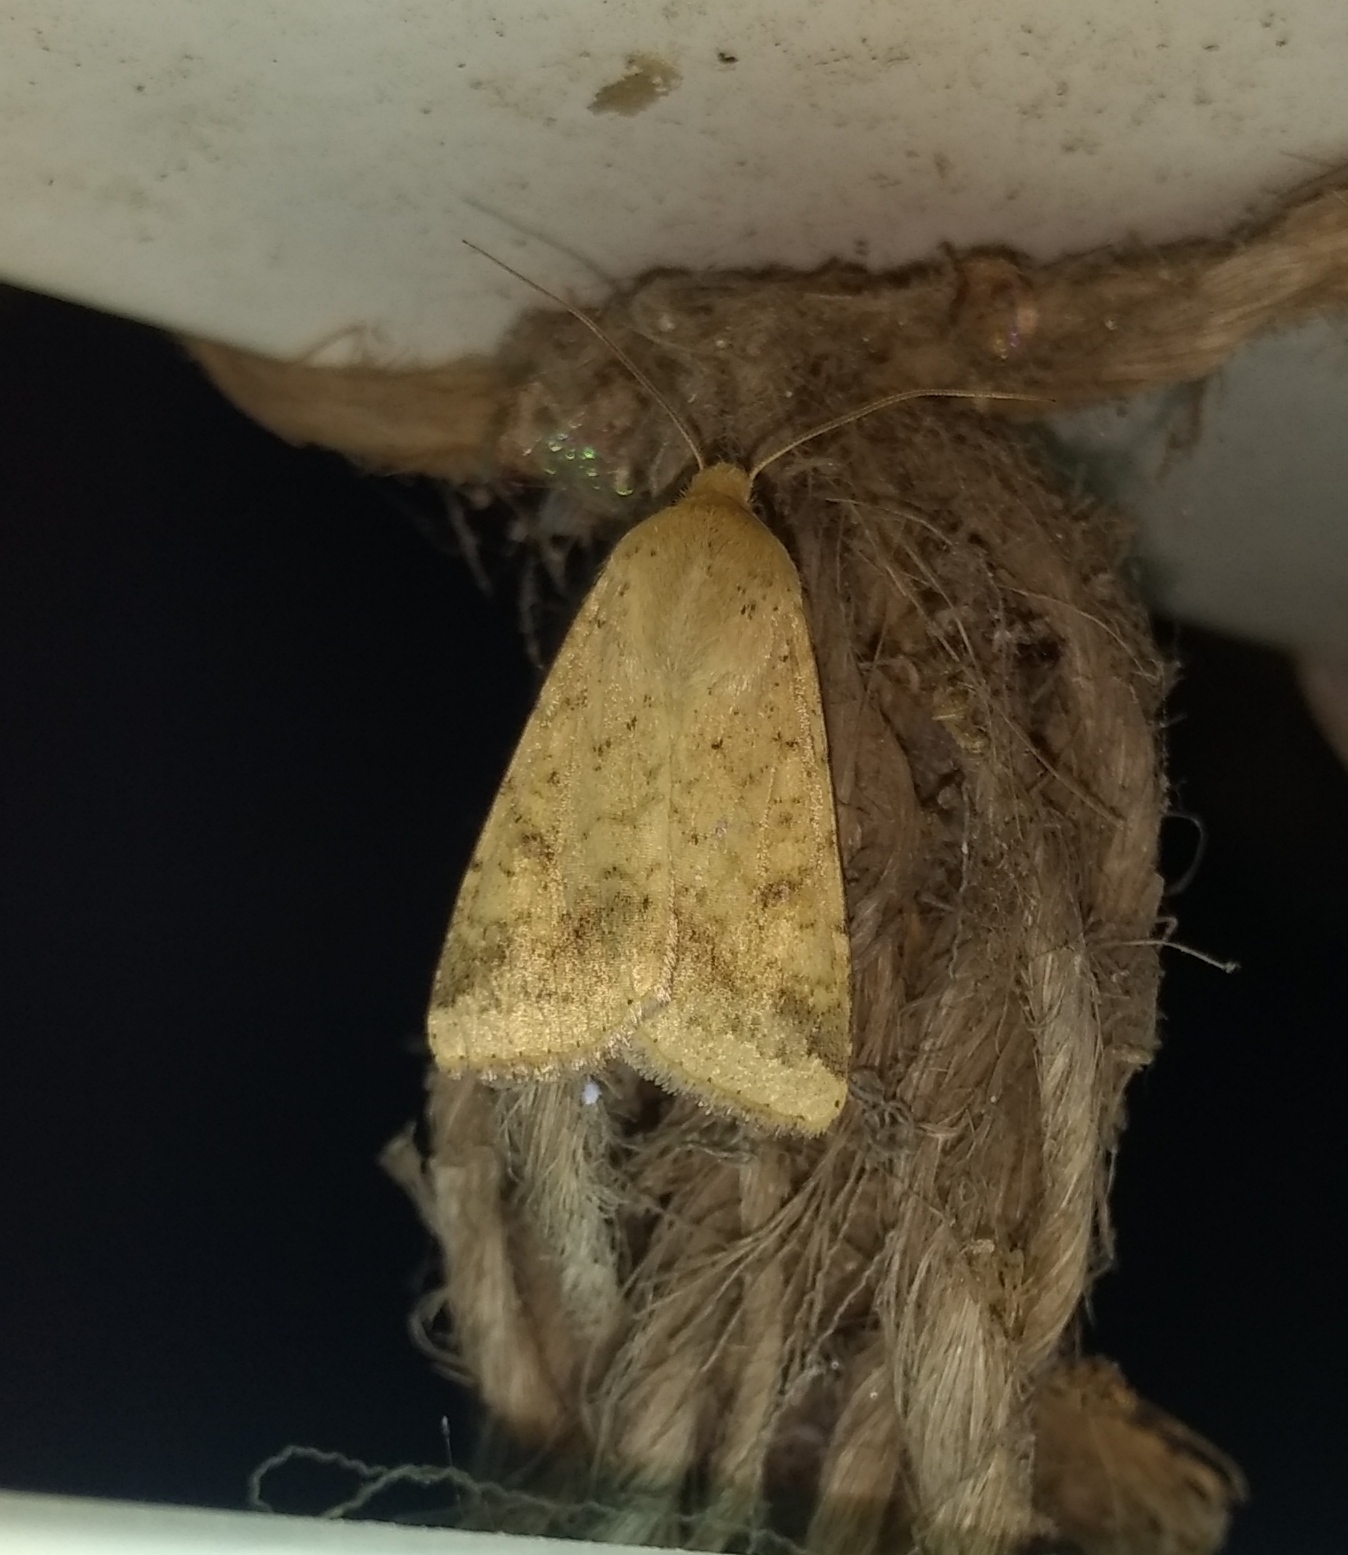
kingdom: Animalia
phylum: Arthropoda
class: Insecta
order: Lepidoptera
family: Noctuidae
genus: Helicoverpa
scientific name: Helicoverpa armigera
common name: Cotton bollworm
